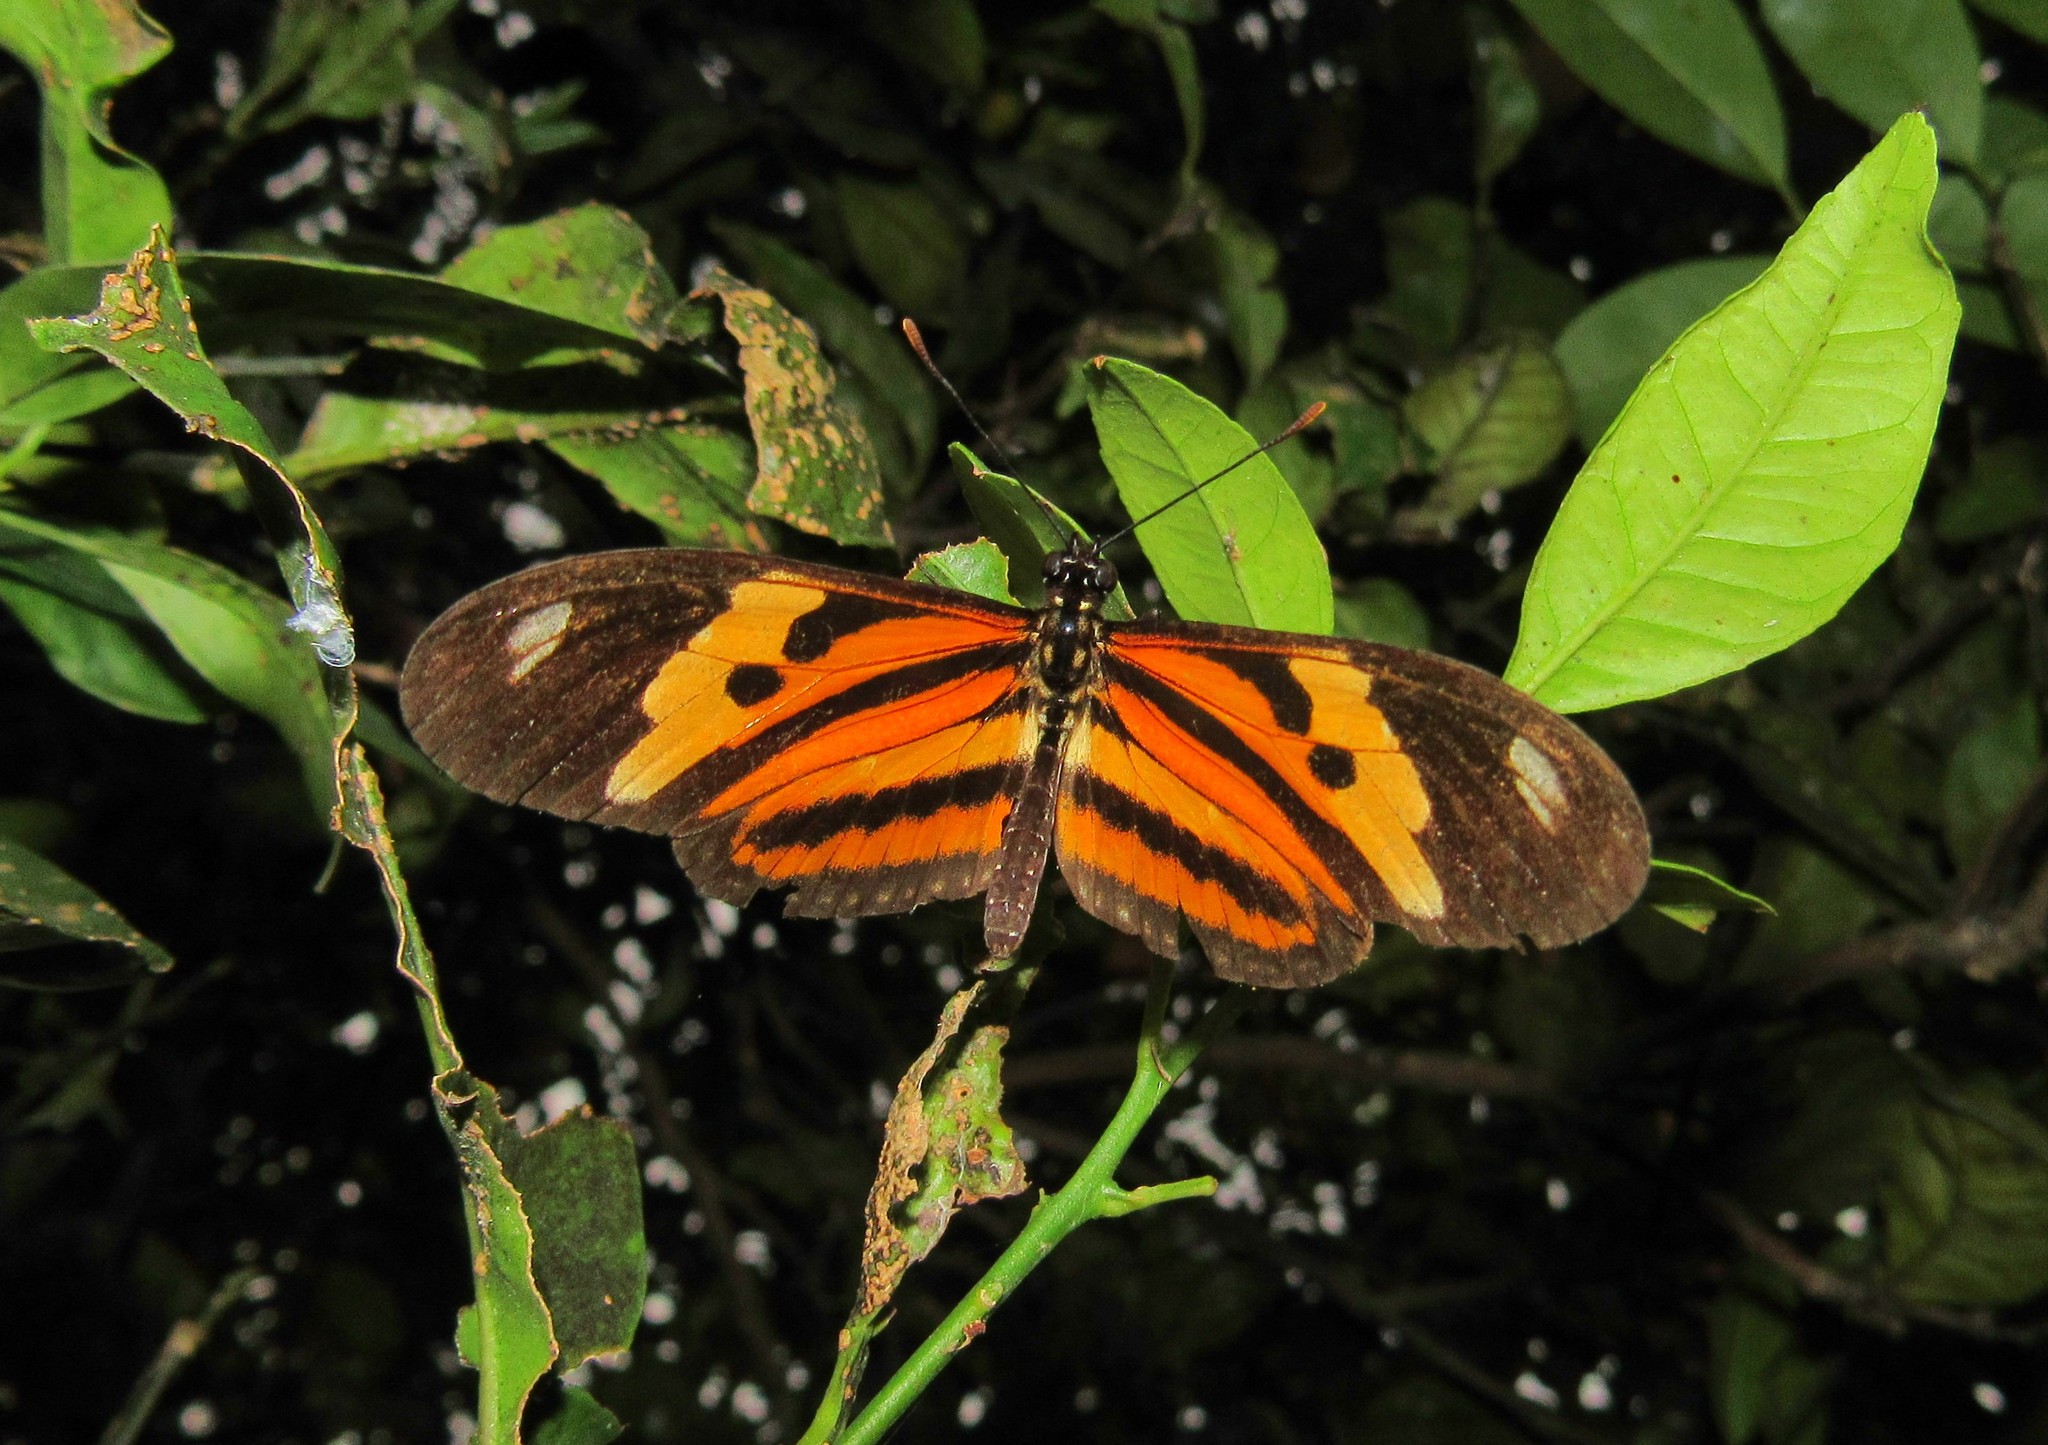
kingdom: Animalia
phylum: Arthropoda
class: Insecta
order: Lepidoptera
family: Nymphalidae
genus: Eueides
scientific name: Eueides isabella
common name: Isabella's longwing
